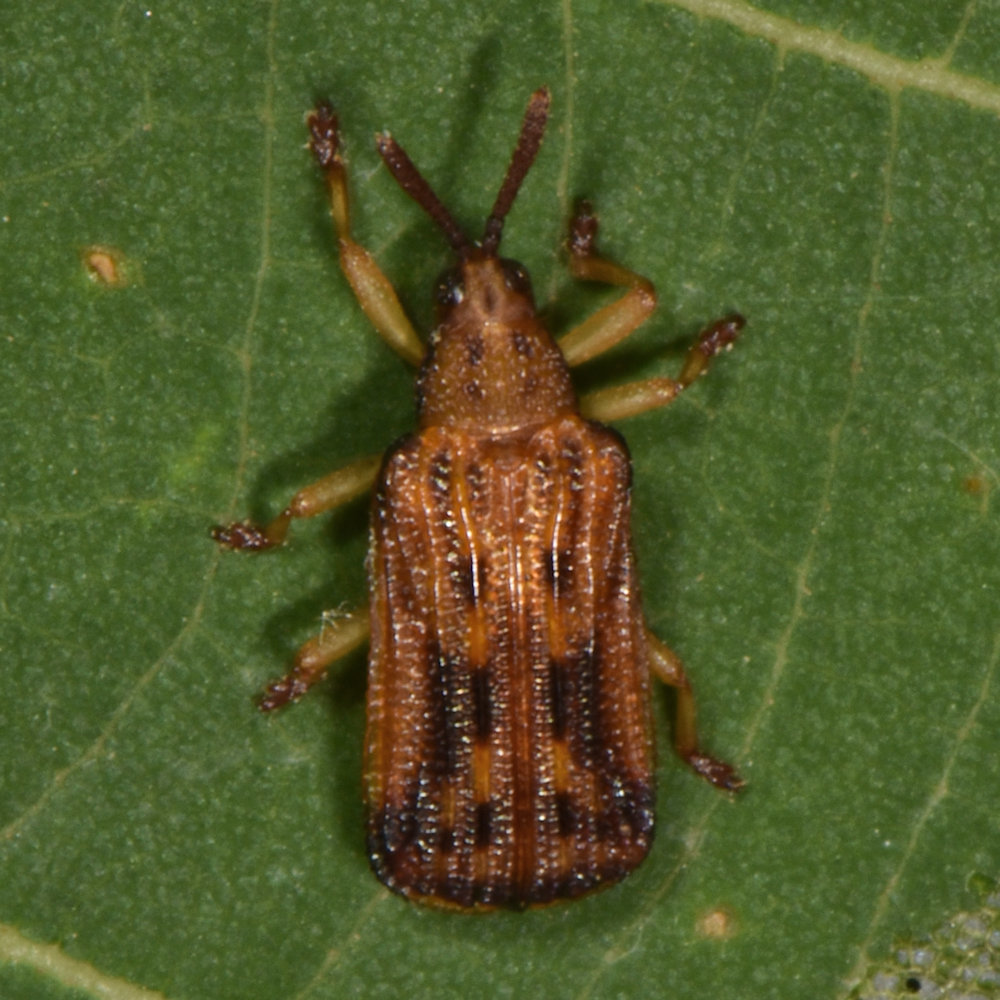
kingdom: Animalia
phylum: Arthropoda
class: Insecta
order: Coleoptera
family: Chrysomelidae
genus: Baliosus
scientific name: Baliosus nervosus
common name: Basswood leaf miner
